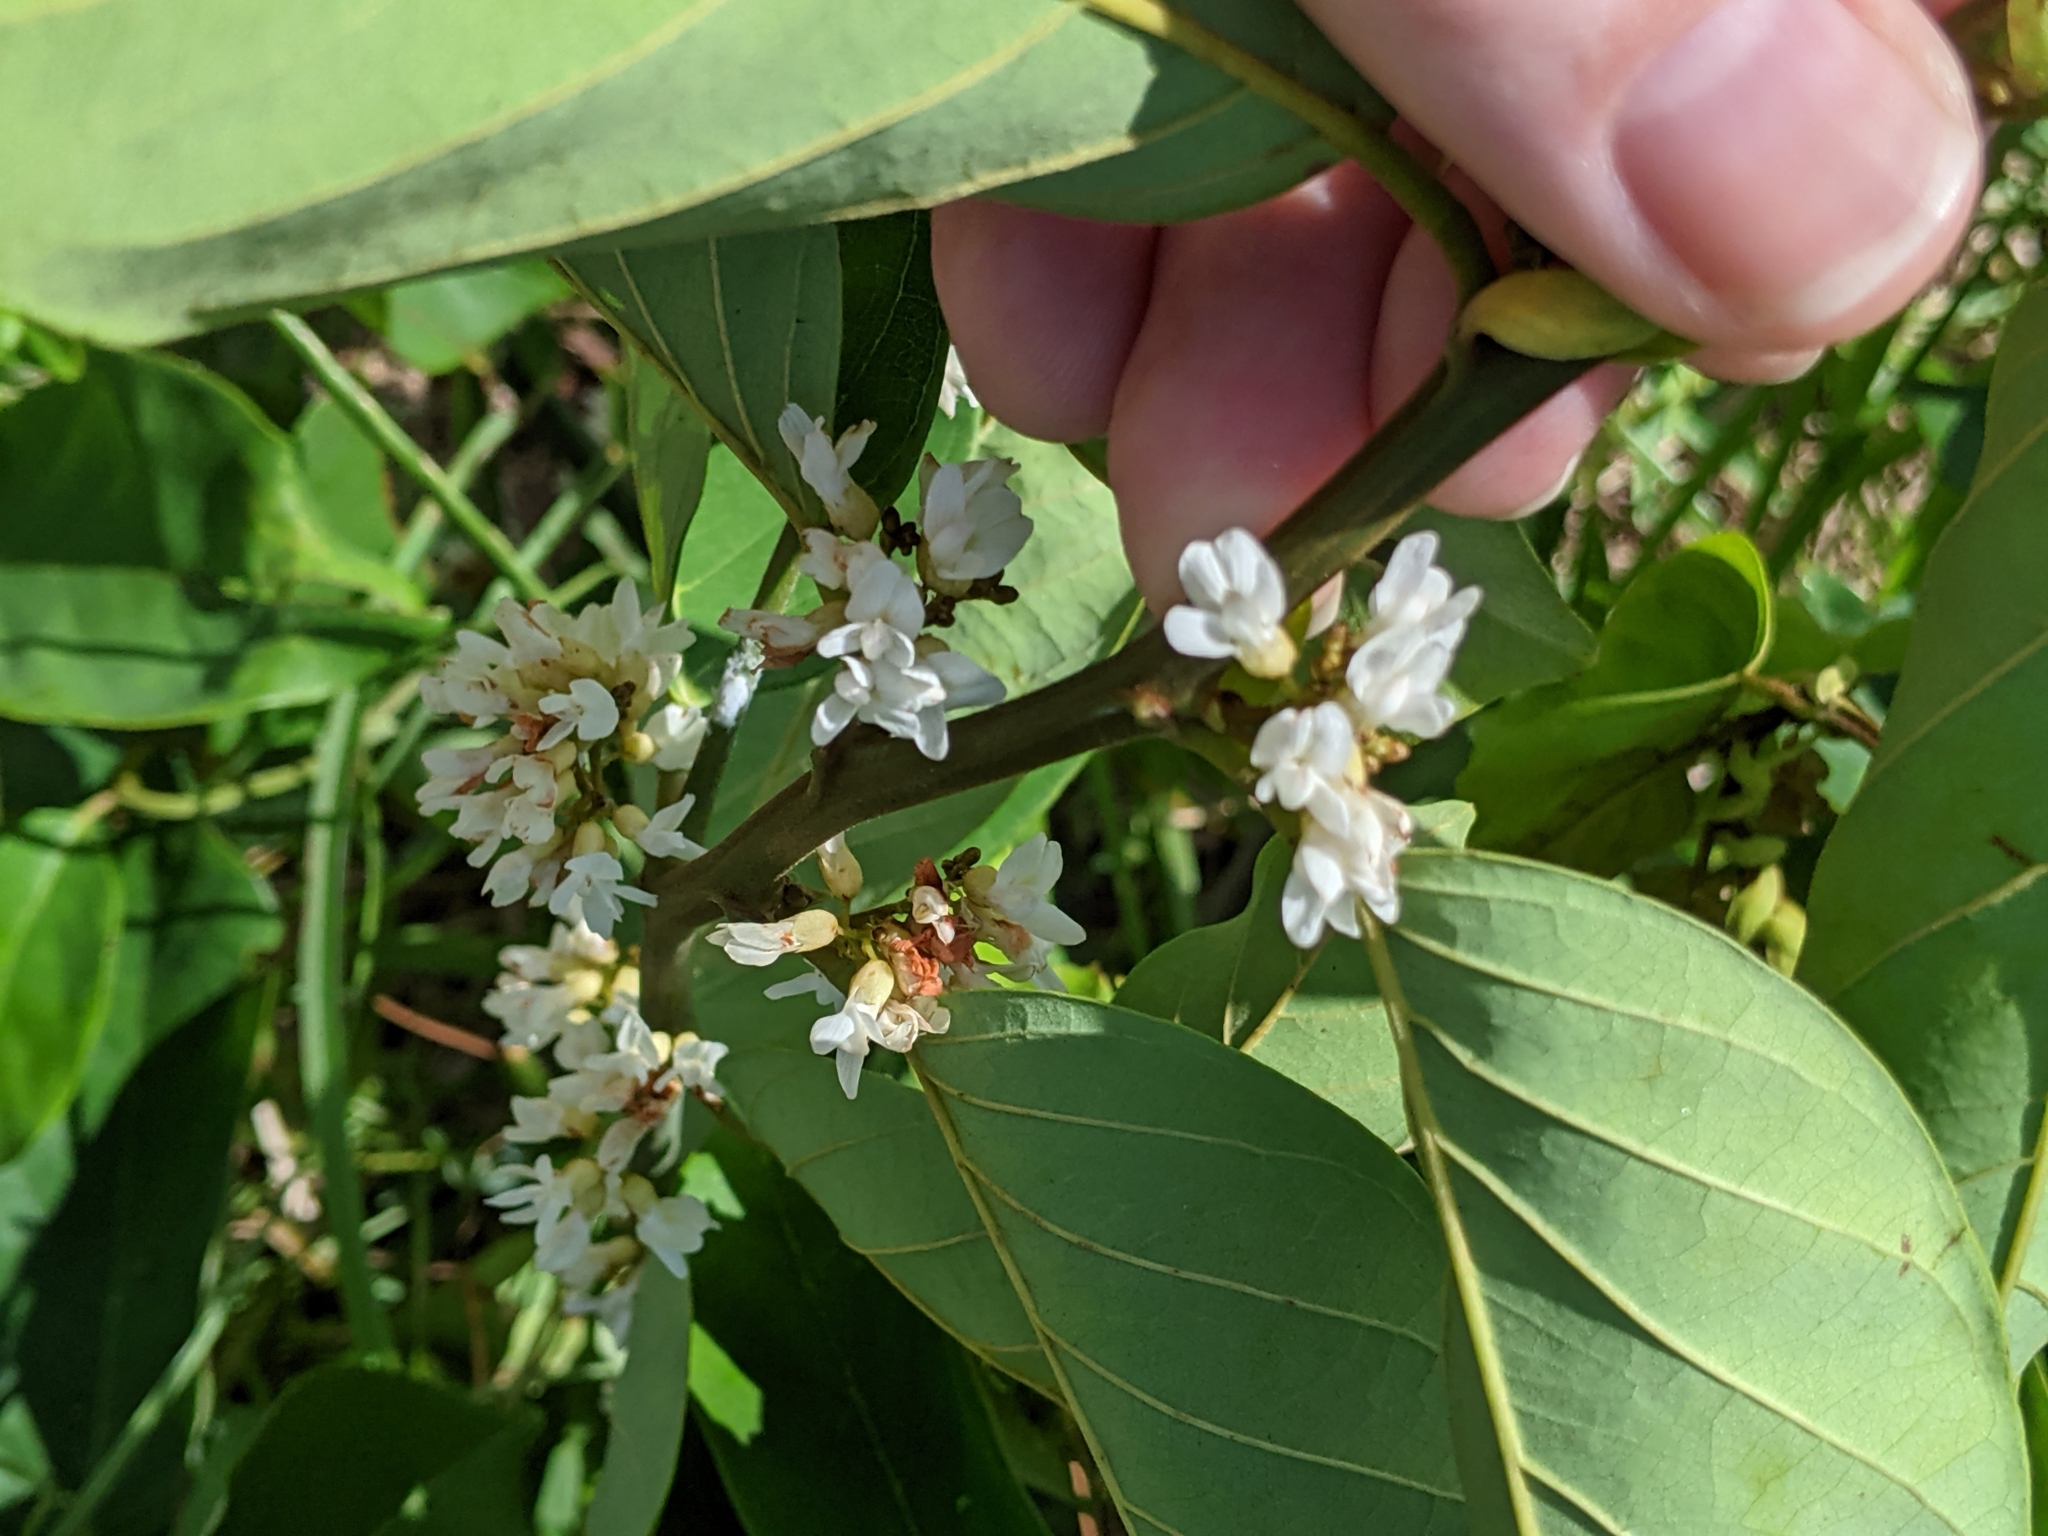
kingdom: Plantae
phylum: Tracheophyta
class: Magnoliopsida
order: Fabales
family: Fabaceae
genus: Dalbergia
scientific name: Dalbergia ecastaphyllum
